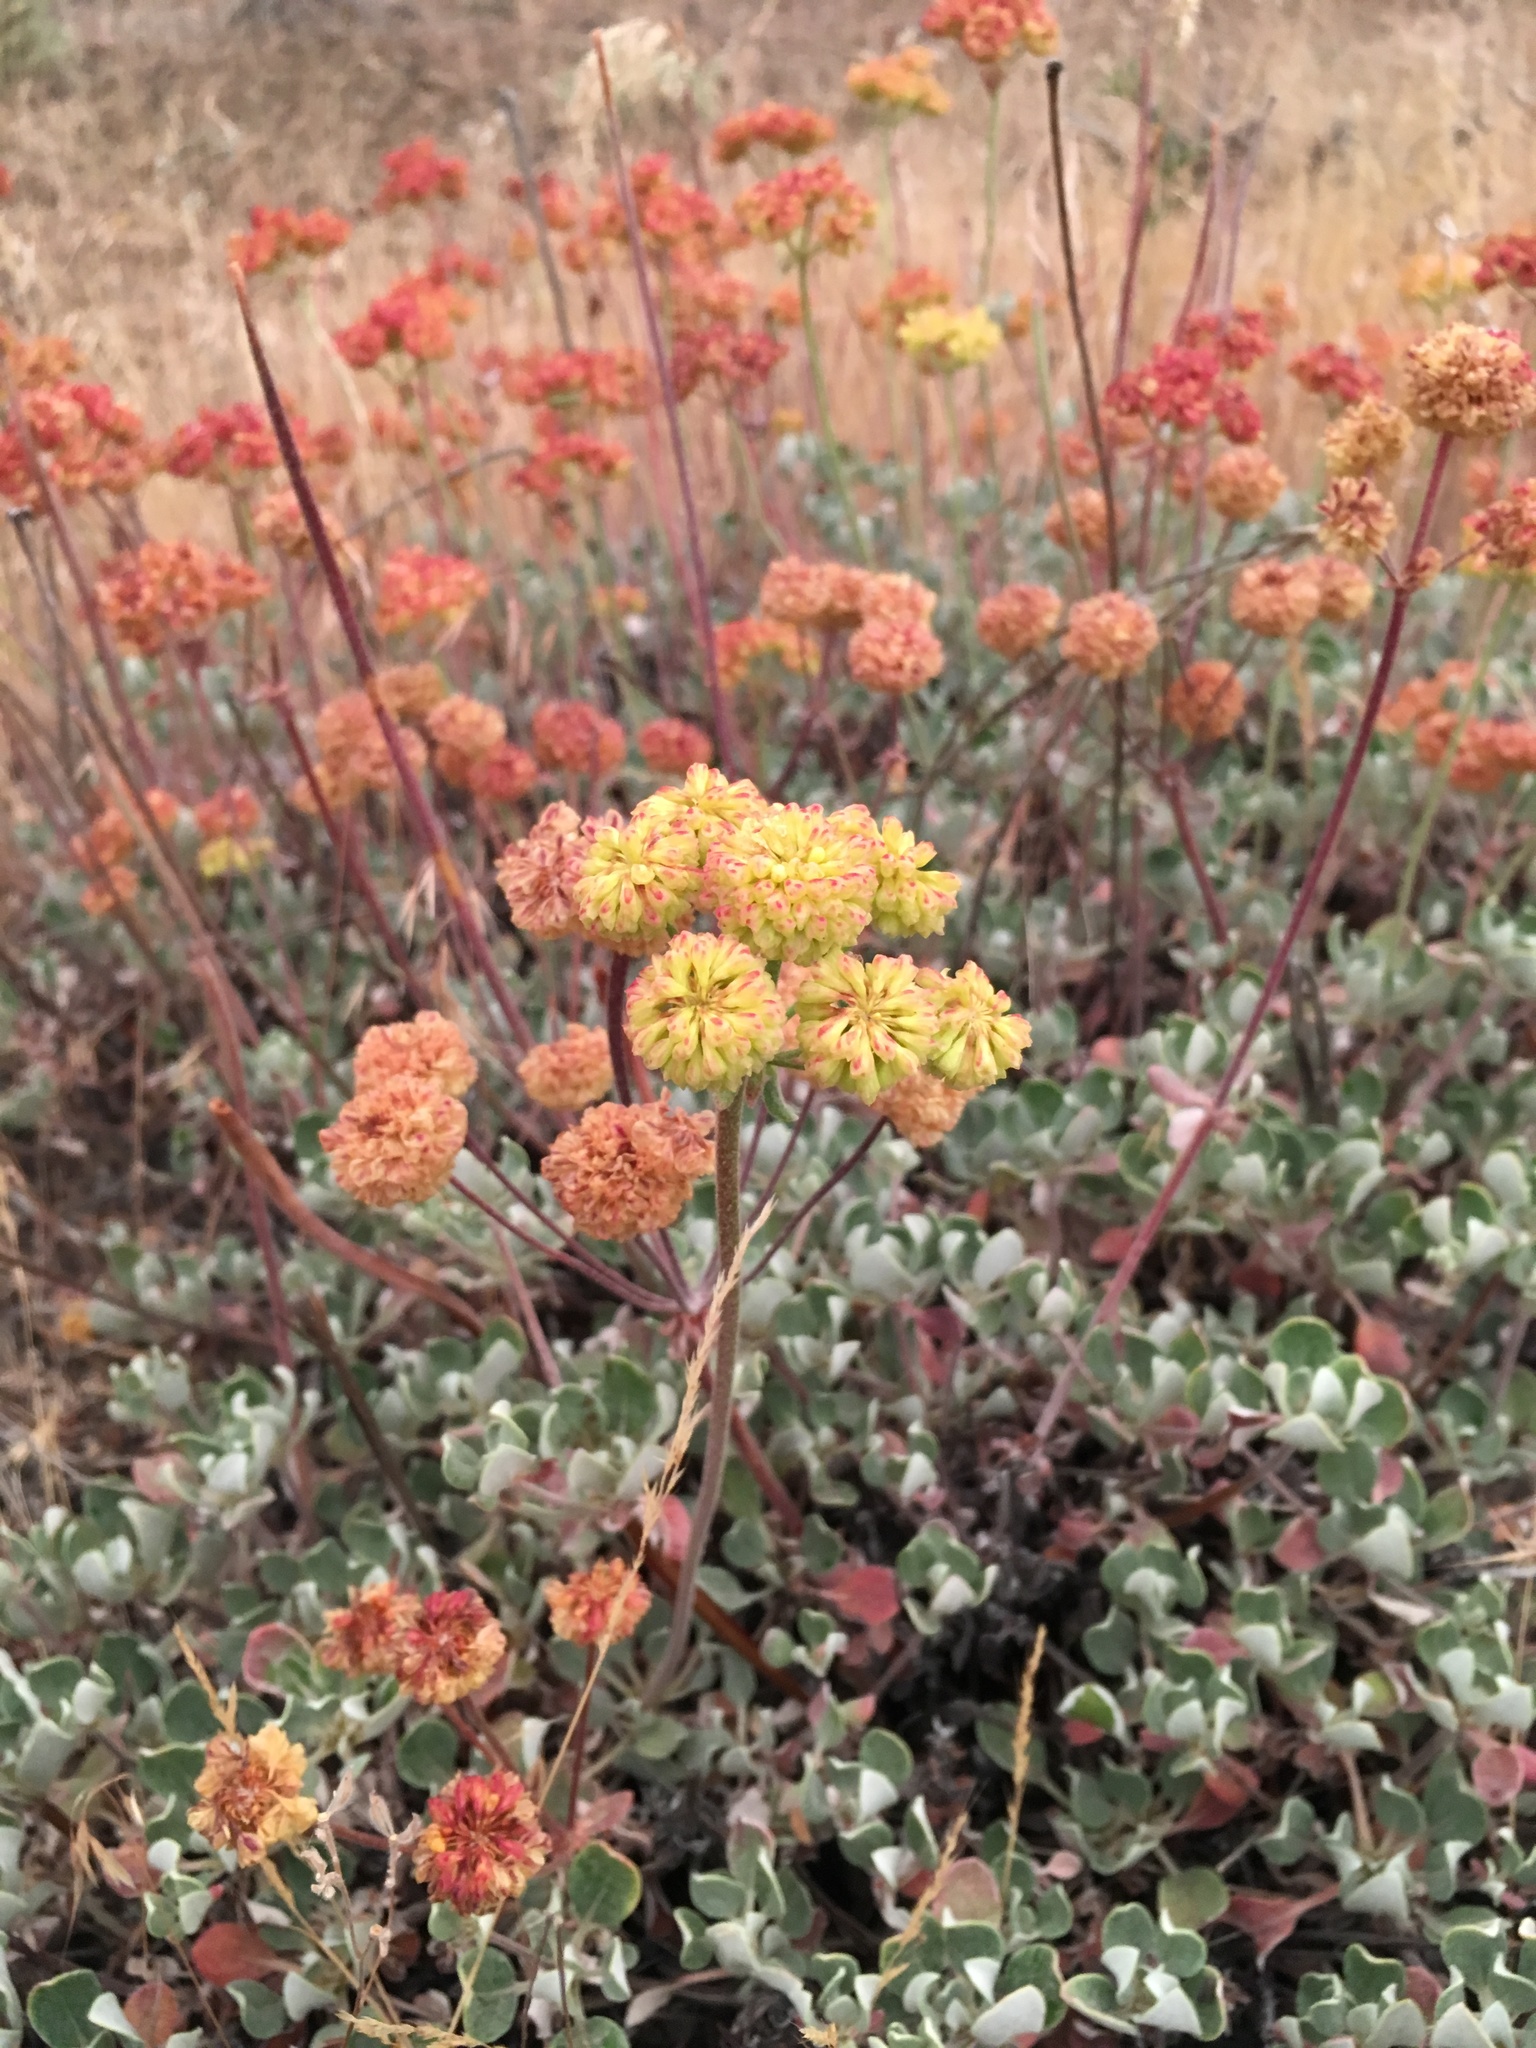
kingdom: Plantae
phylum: Tracheophyta
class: Magnoliopsida
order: Caryophyllales
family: Polygonaceae
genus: Eriogonum
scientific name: Eriogonum umbellatum
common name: Sulfur-buckwheat
